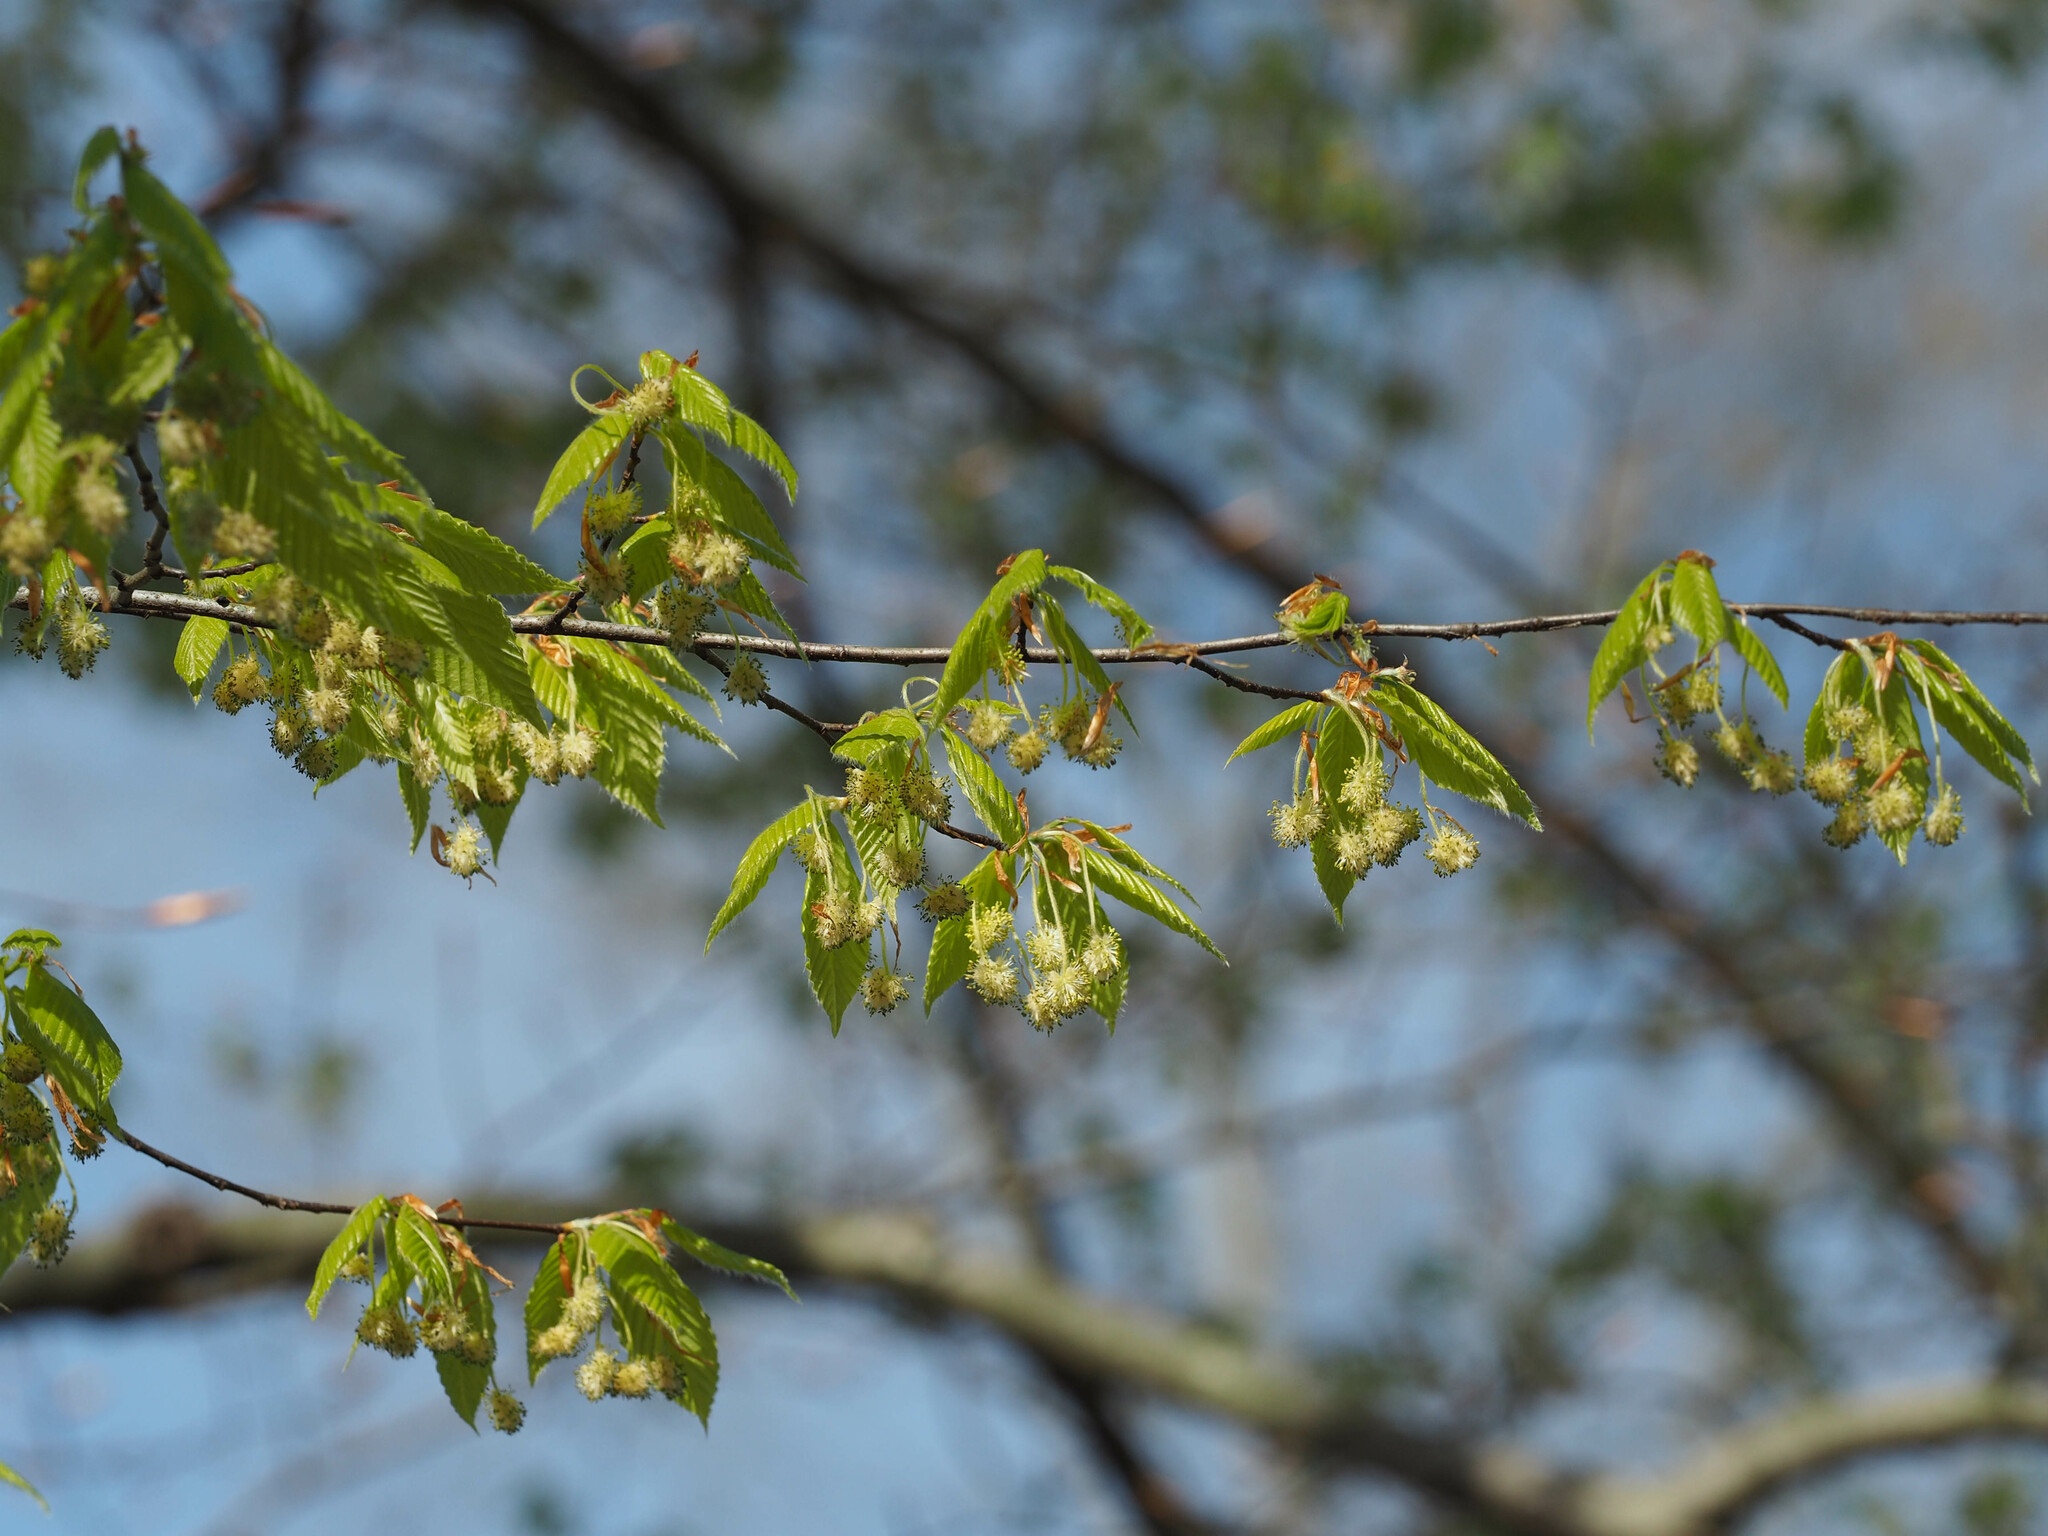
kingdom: Plantae
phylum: Tracheophyta
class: Magnoliopsida
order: Fagales
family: Fagaceae
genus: Fagus
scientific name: Fagus grandifolia
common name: American beech
